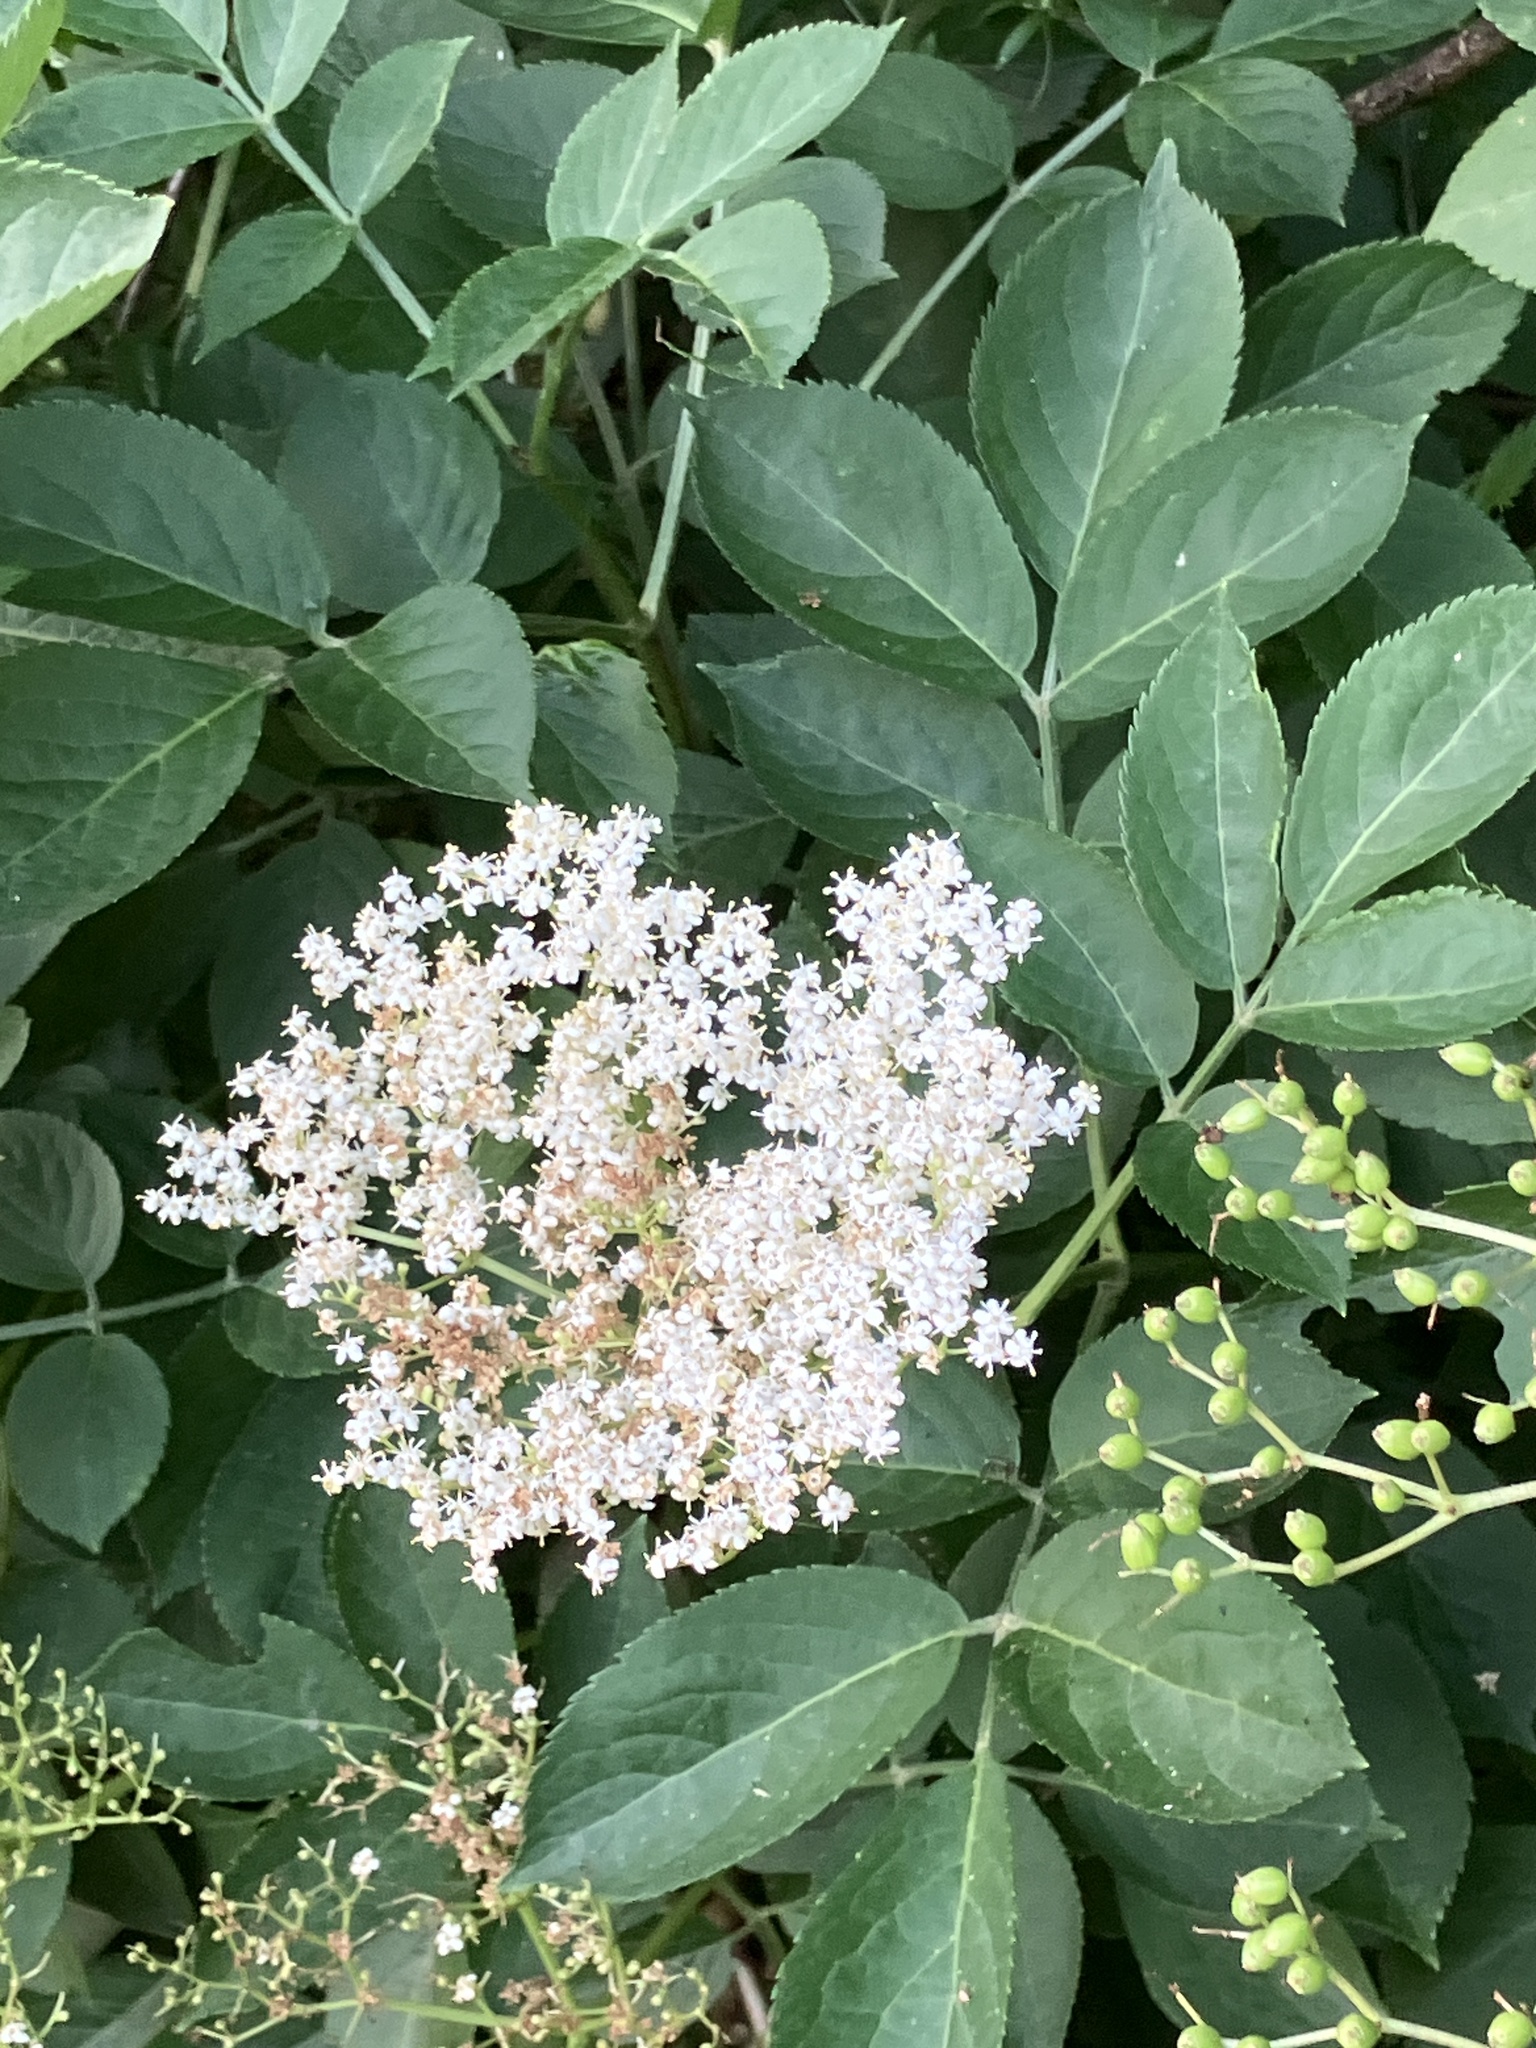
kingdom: Plantae
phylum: Tracheophyta
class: Magnoliopsida
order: Dipsacales
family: Viburnaceae
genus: Sambucus
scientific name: Sambucus nigra
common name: Elder
